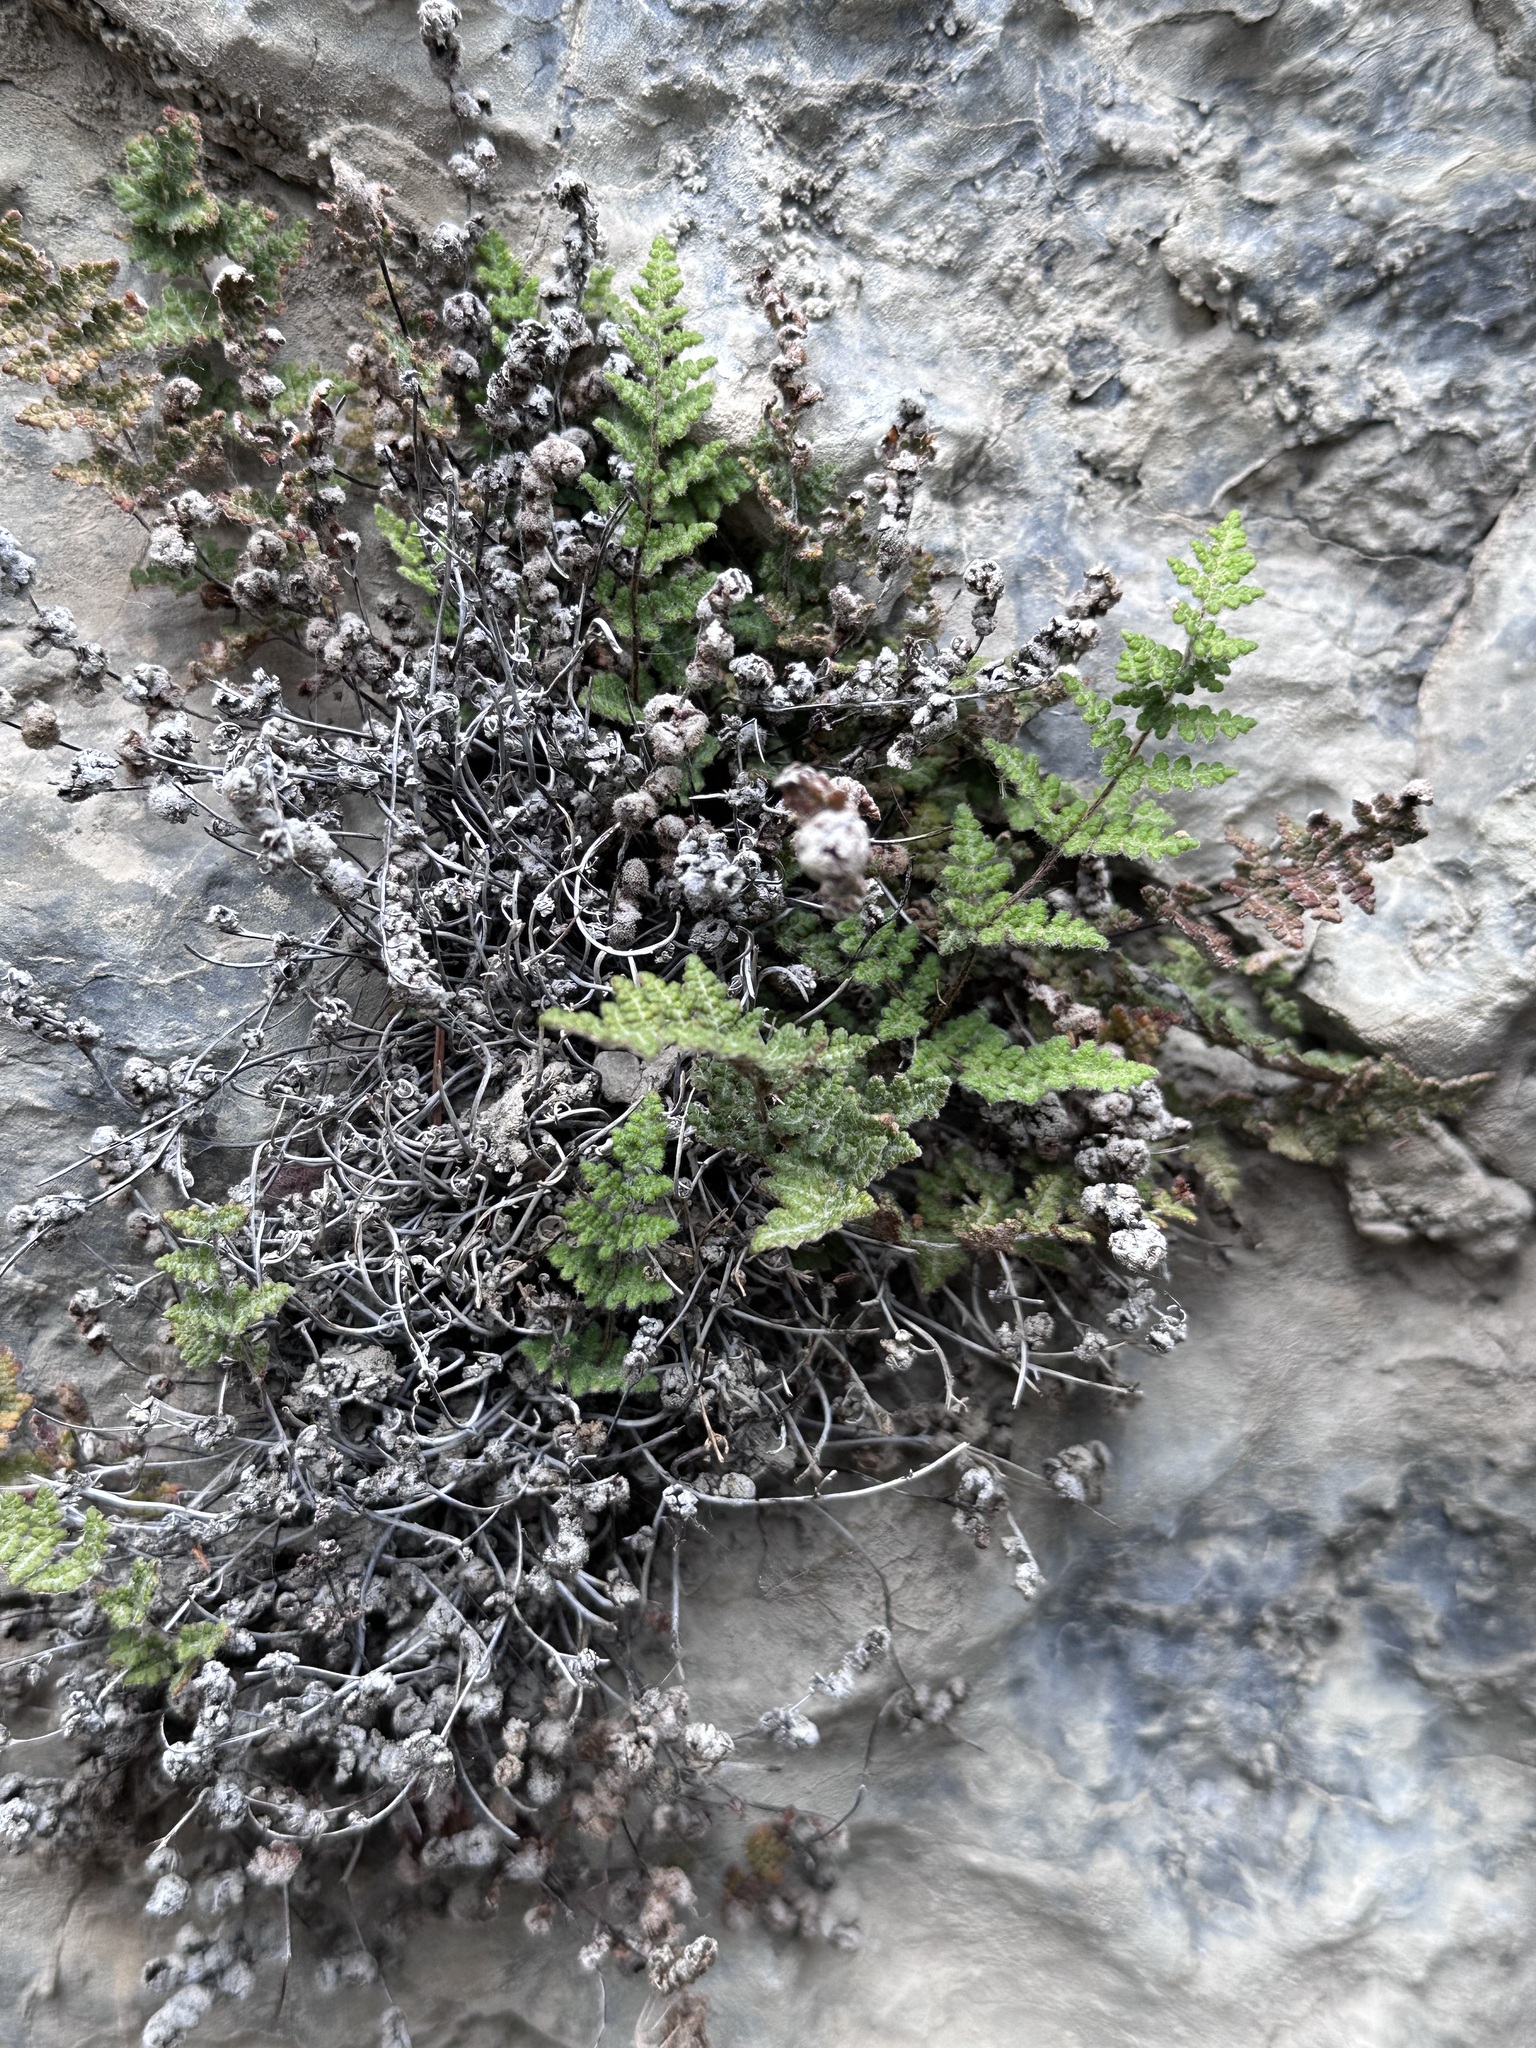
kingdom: Plantae
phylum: Tracheophyta
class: Polypodiopsida
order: Polypodiales
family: Pteridaceae
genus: Myriopteris
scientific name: Myriopteris gracilis
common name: Fee's lip fern
